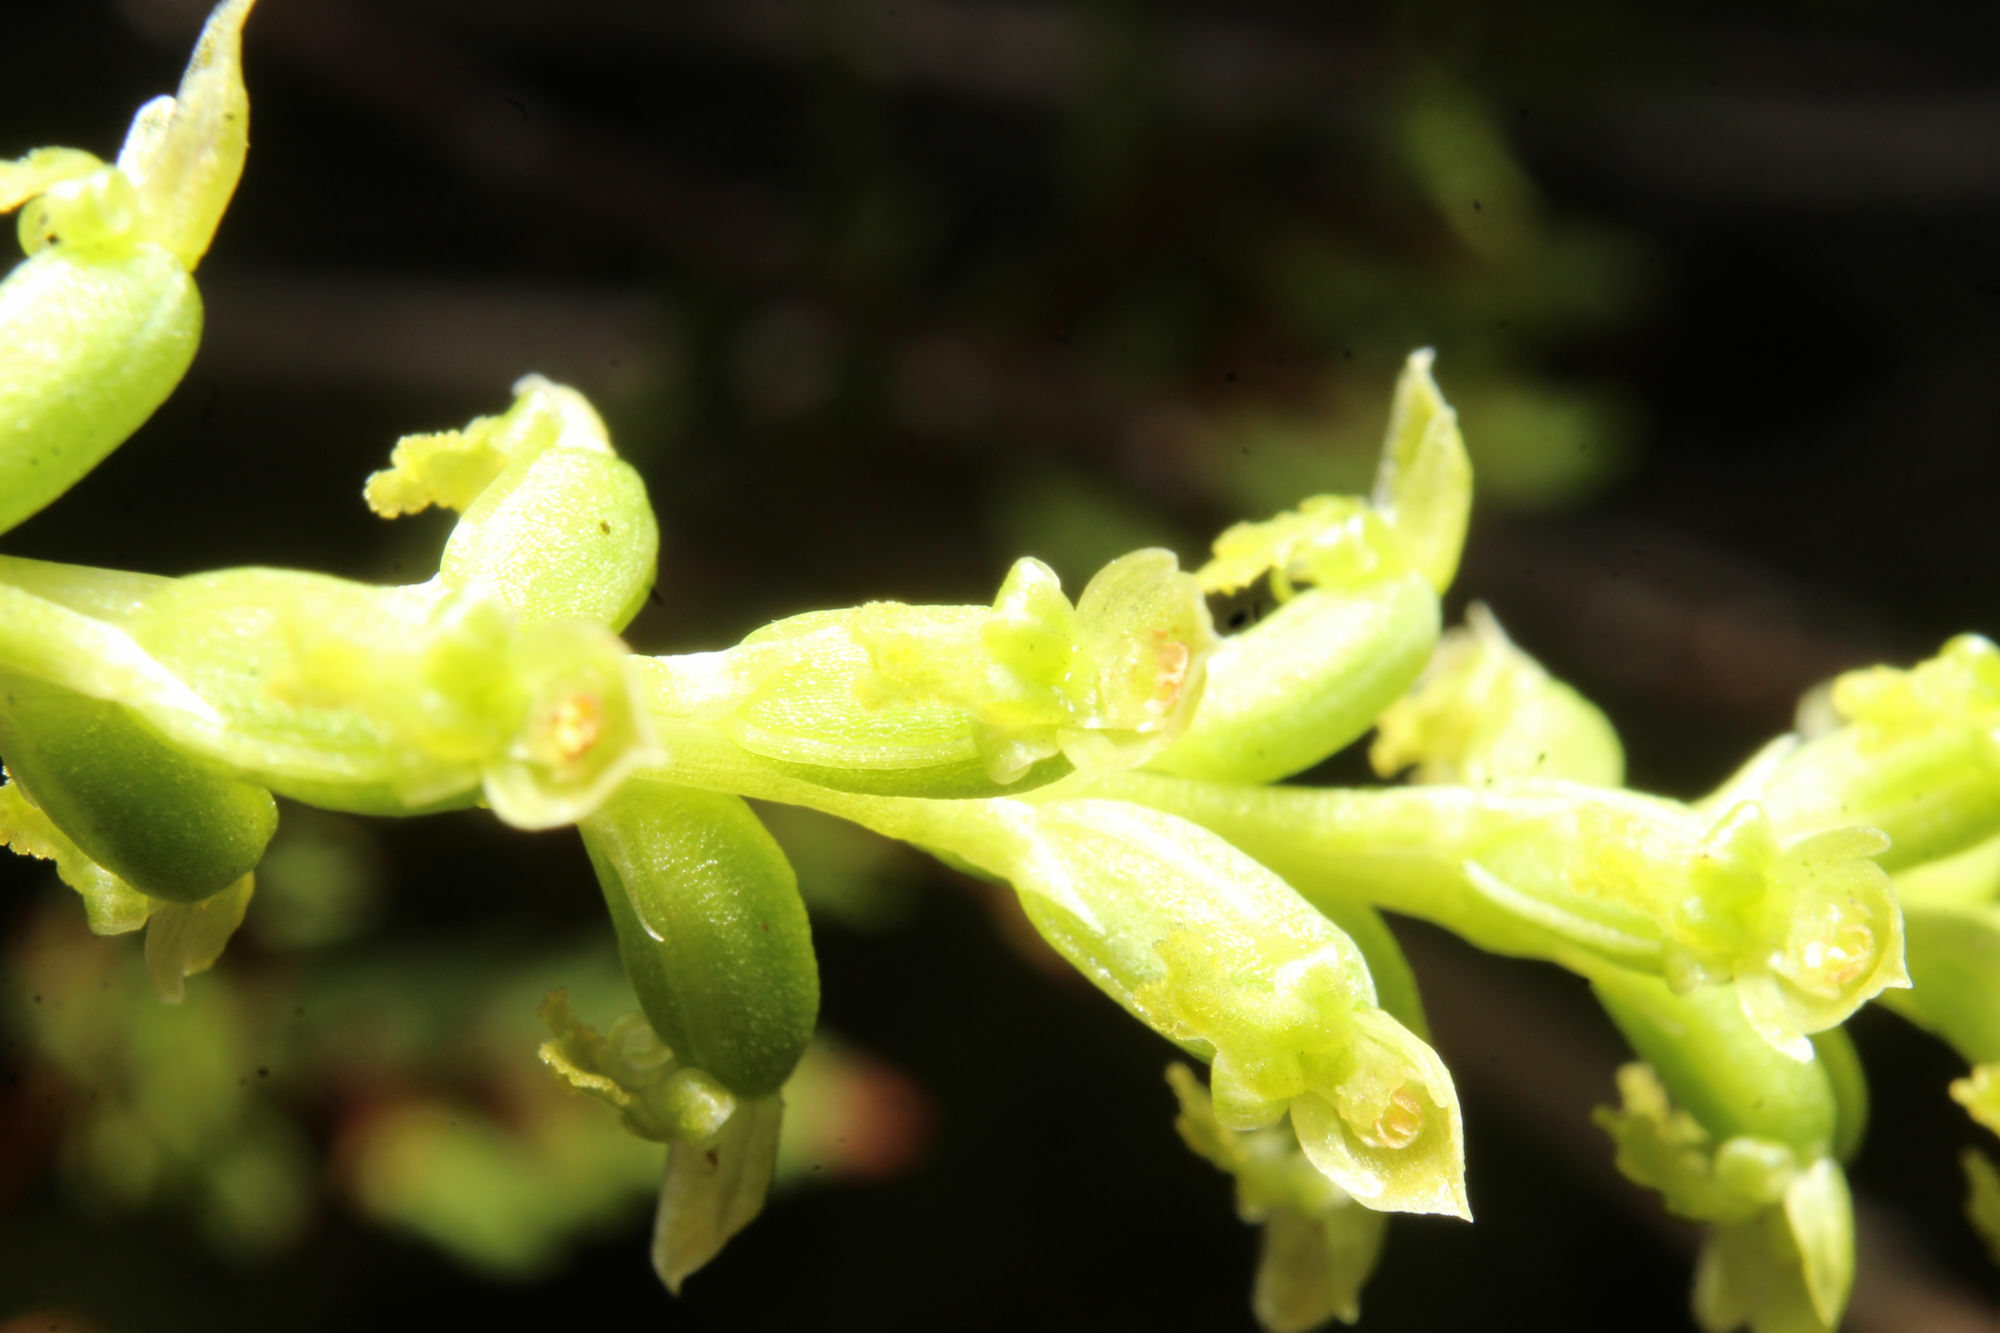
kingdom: Plantae
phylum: Tracheophyta
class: Liliopsida
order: Asparagales
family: Orchidaceae
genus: Microtis
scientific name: Microtis media
